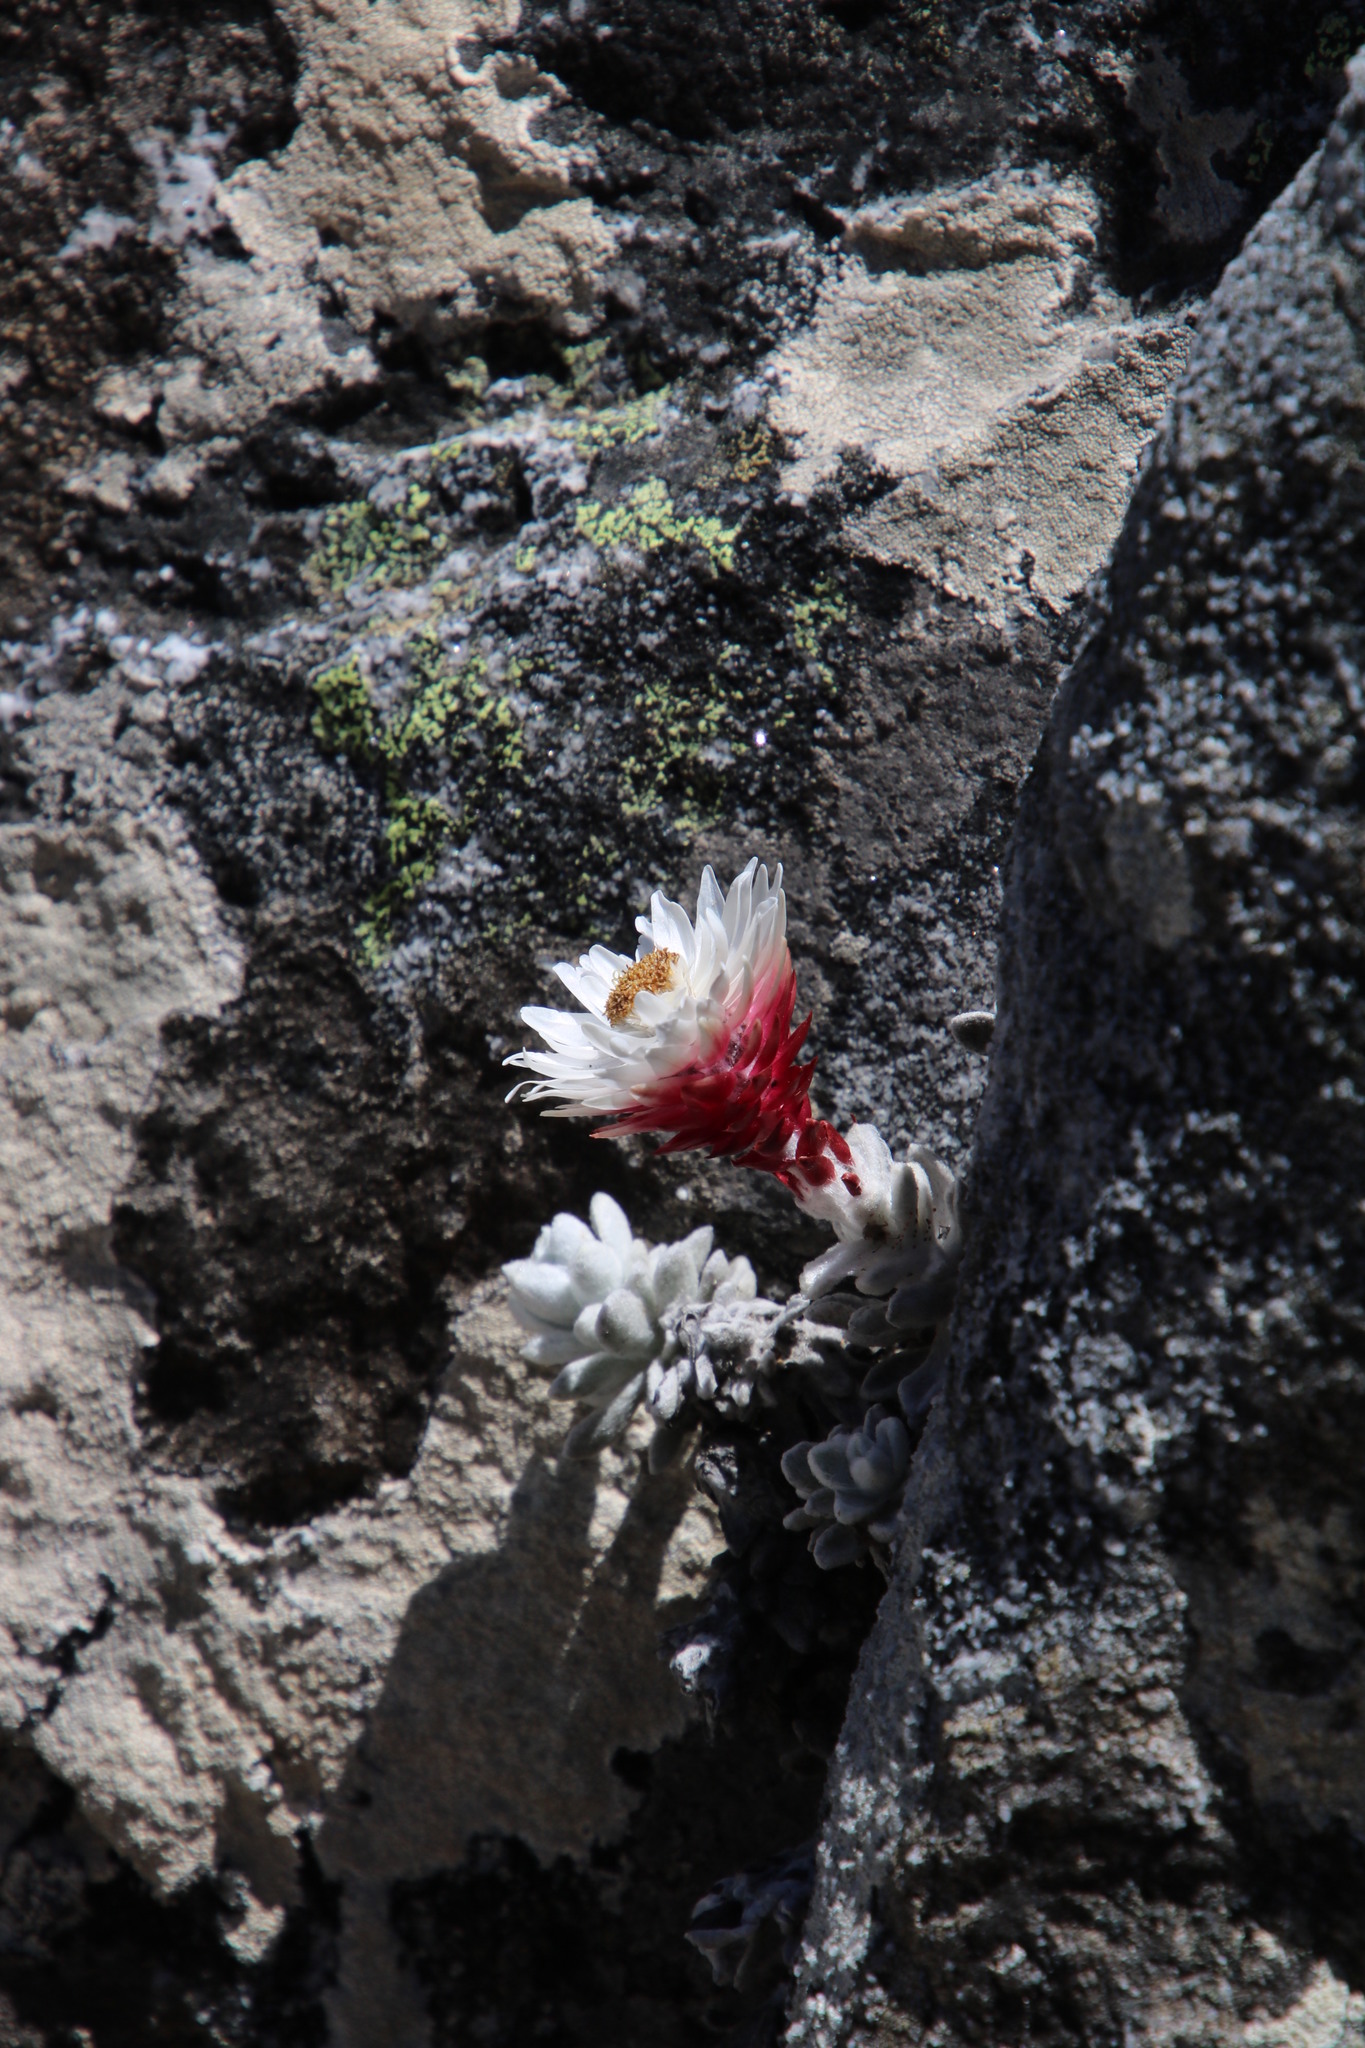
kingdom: Plantae
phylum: Tracheophyta
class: Magnoliopsida
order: Asterales
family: Asteraceae
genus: Syncarpha
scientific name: Syncarpha dykei
